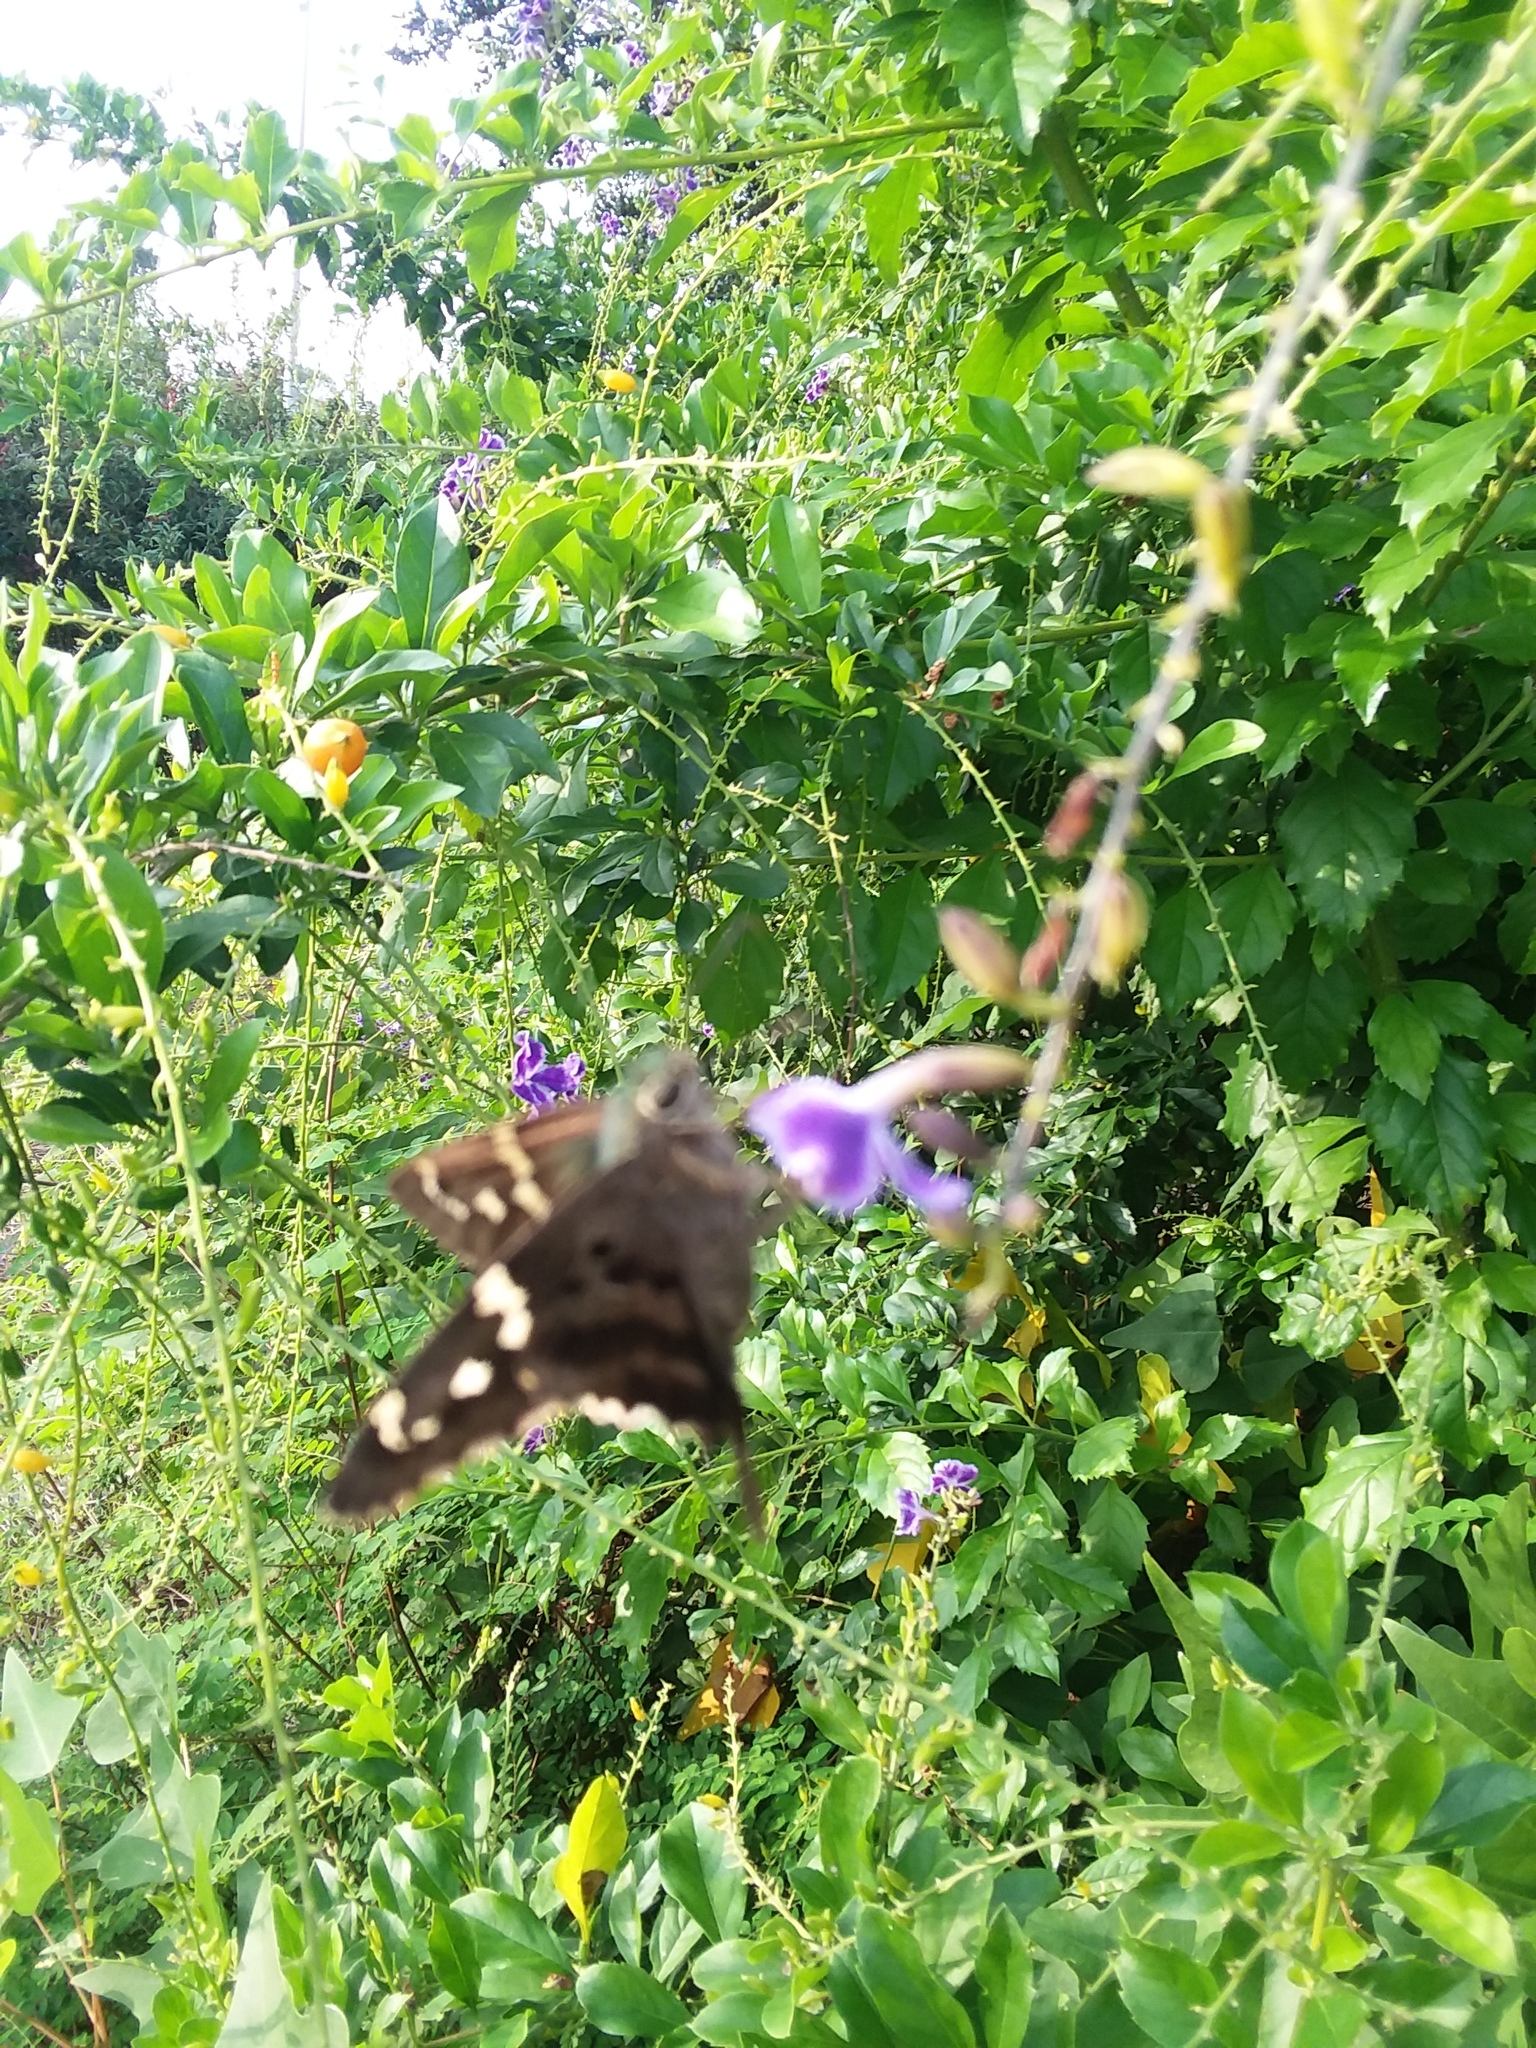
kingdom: Animalia
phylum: Arthropoda
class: Insecta
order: Lepidoptera
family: Hesperiidae
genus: Urbanus
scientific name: Urbanus proteus
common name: Long-tailed skipper
